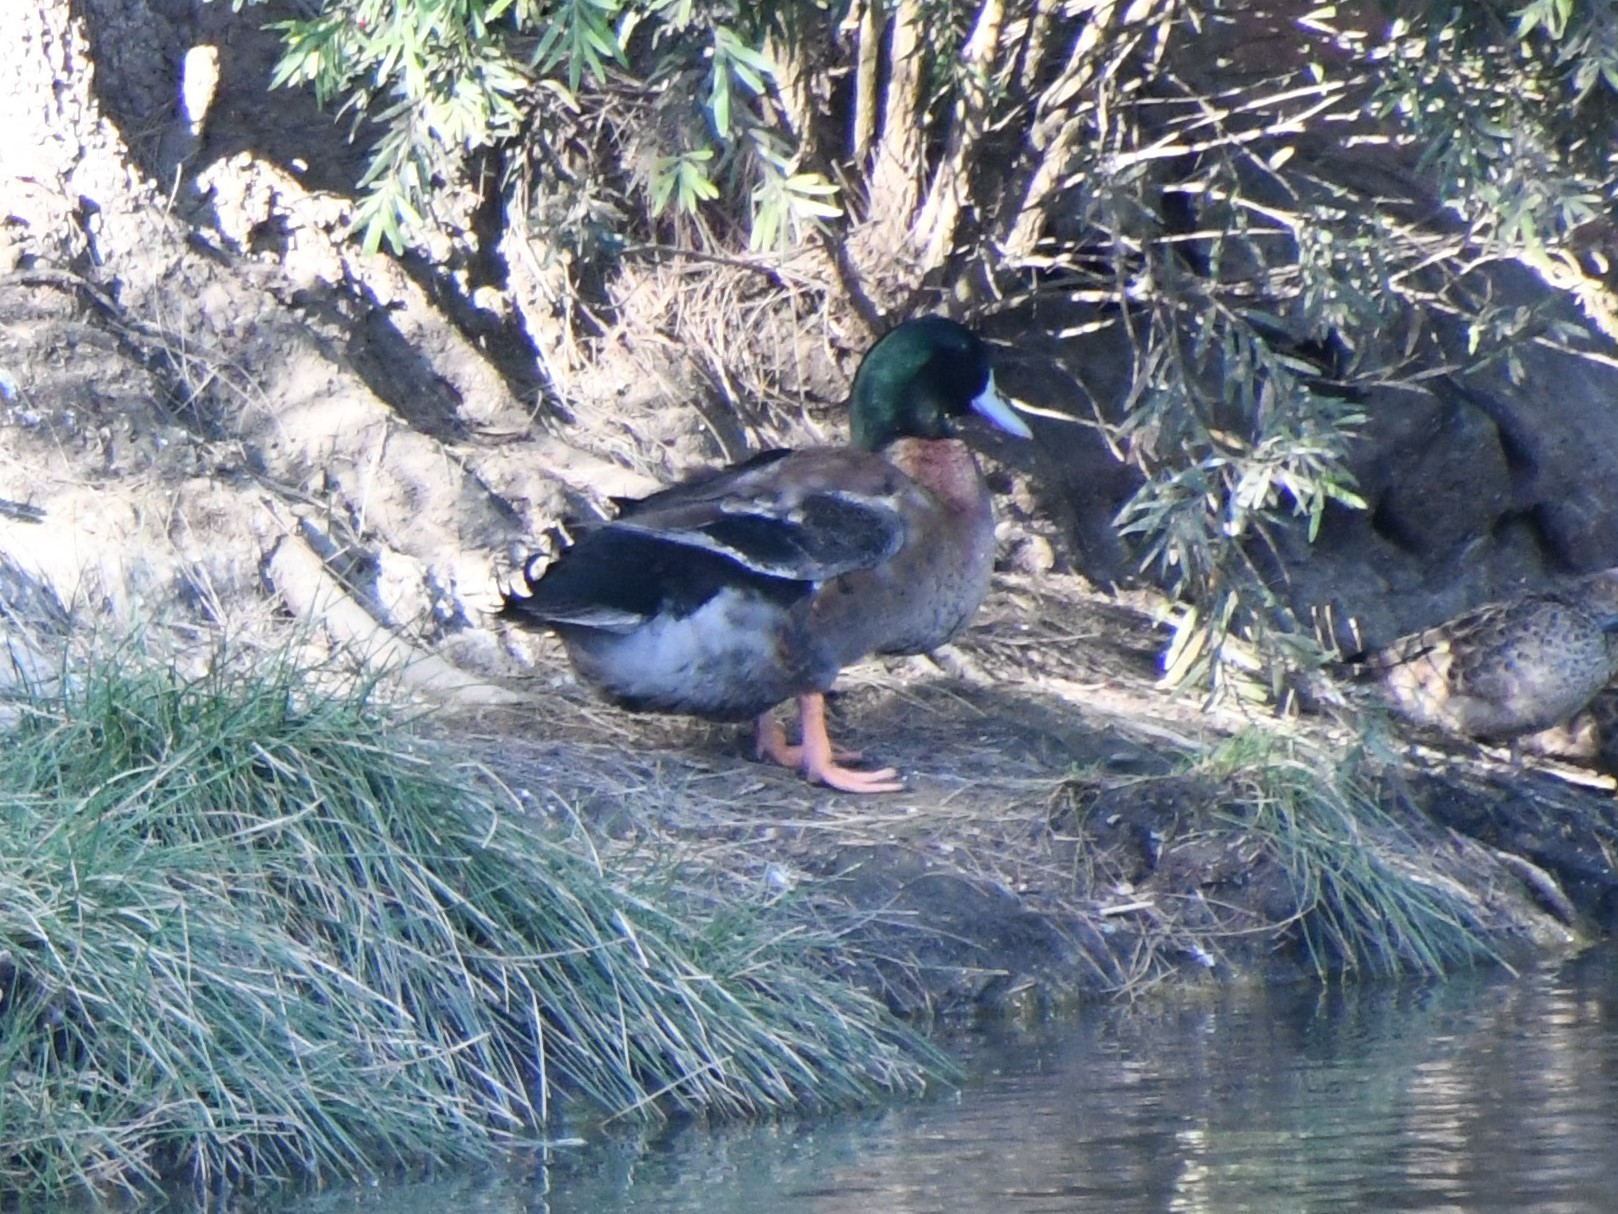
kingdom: Animalia
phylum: Chordata
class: Aves
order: Anseriformes
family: Anatidae
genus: Anas
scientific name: Anas platyrhynchos
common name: Mallard
